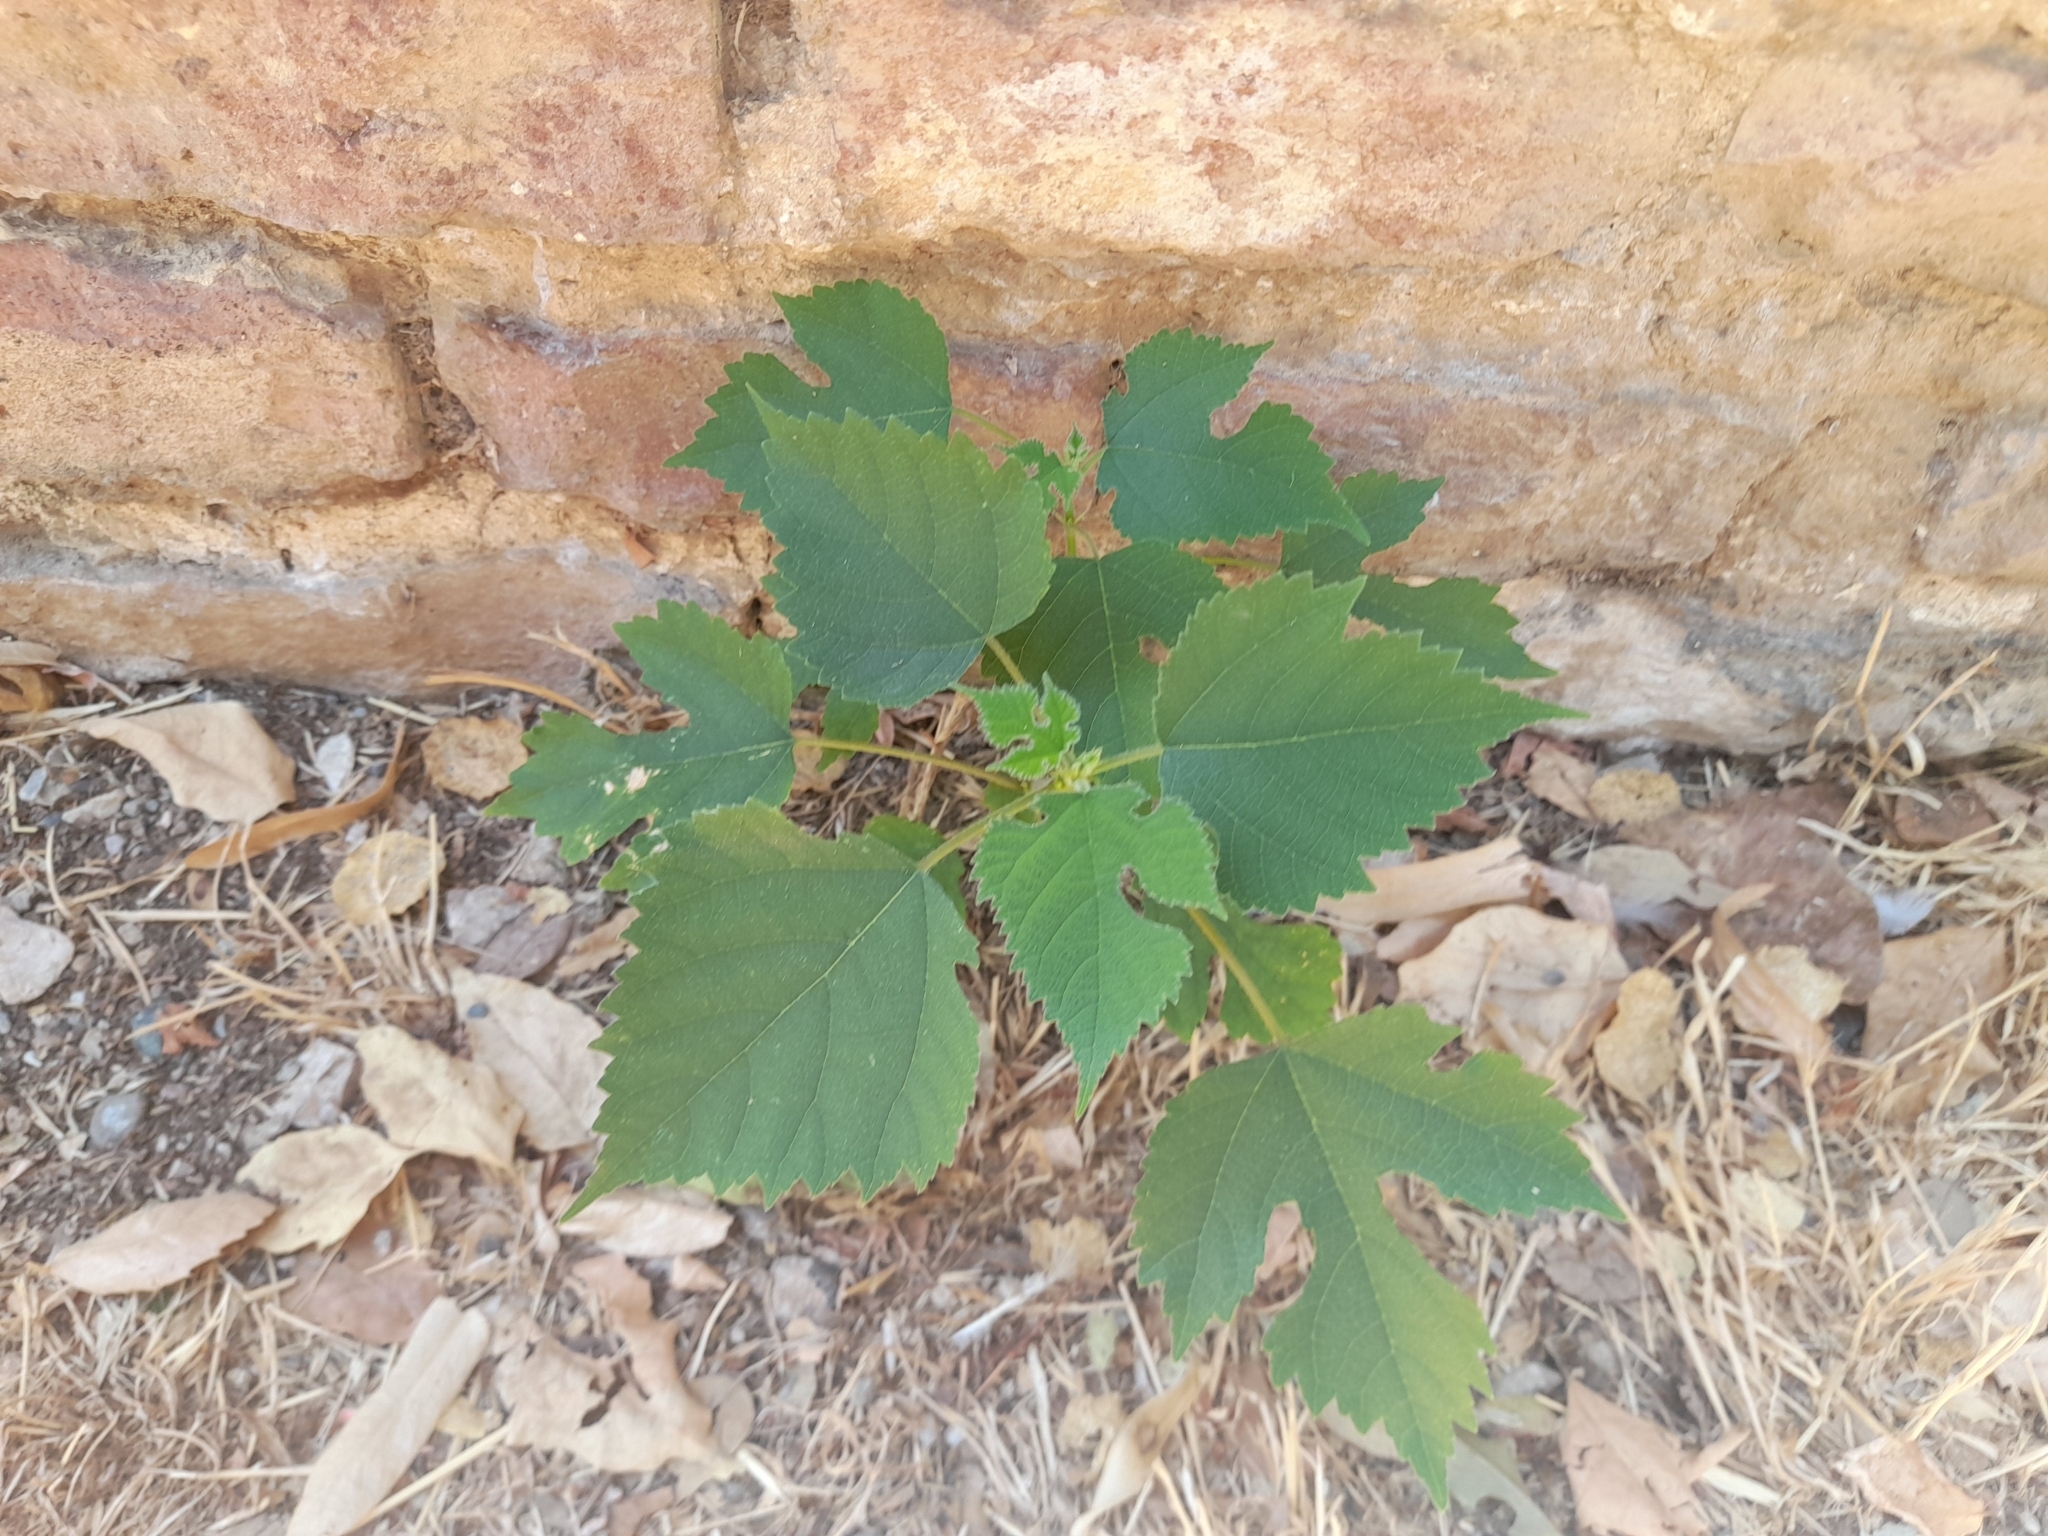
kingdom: Plantae
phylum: Tracheophyta
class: Magnoliopsida
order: Rosales
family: Moraceae
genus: Broussonetia
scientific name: Broussonetia papyrifera
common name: Paper mulberry
